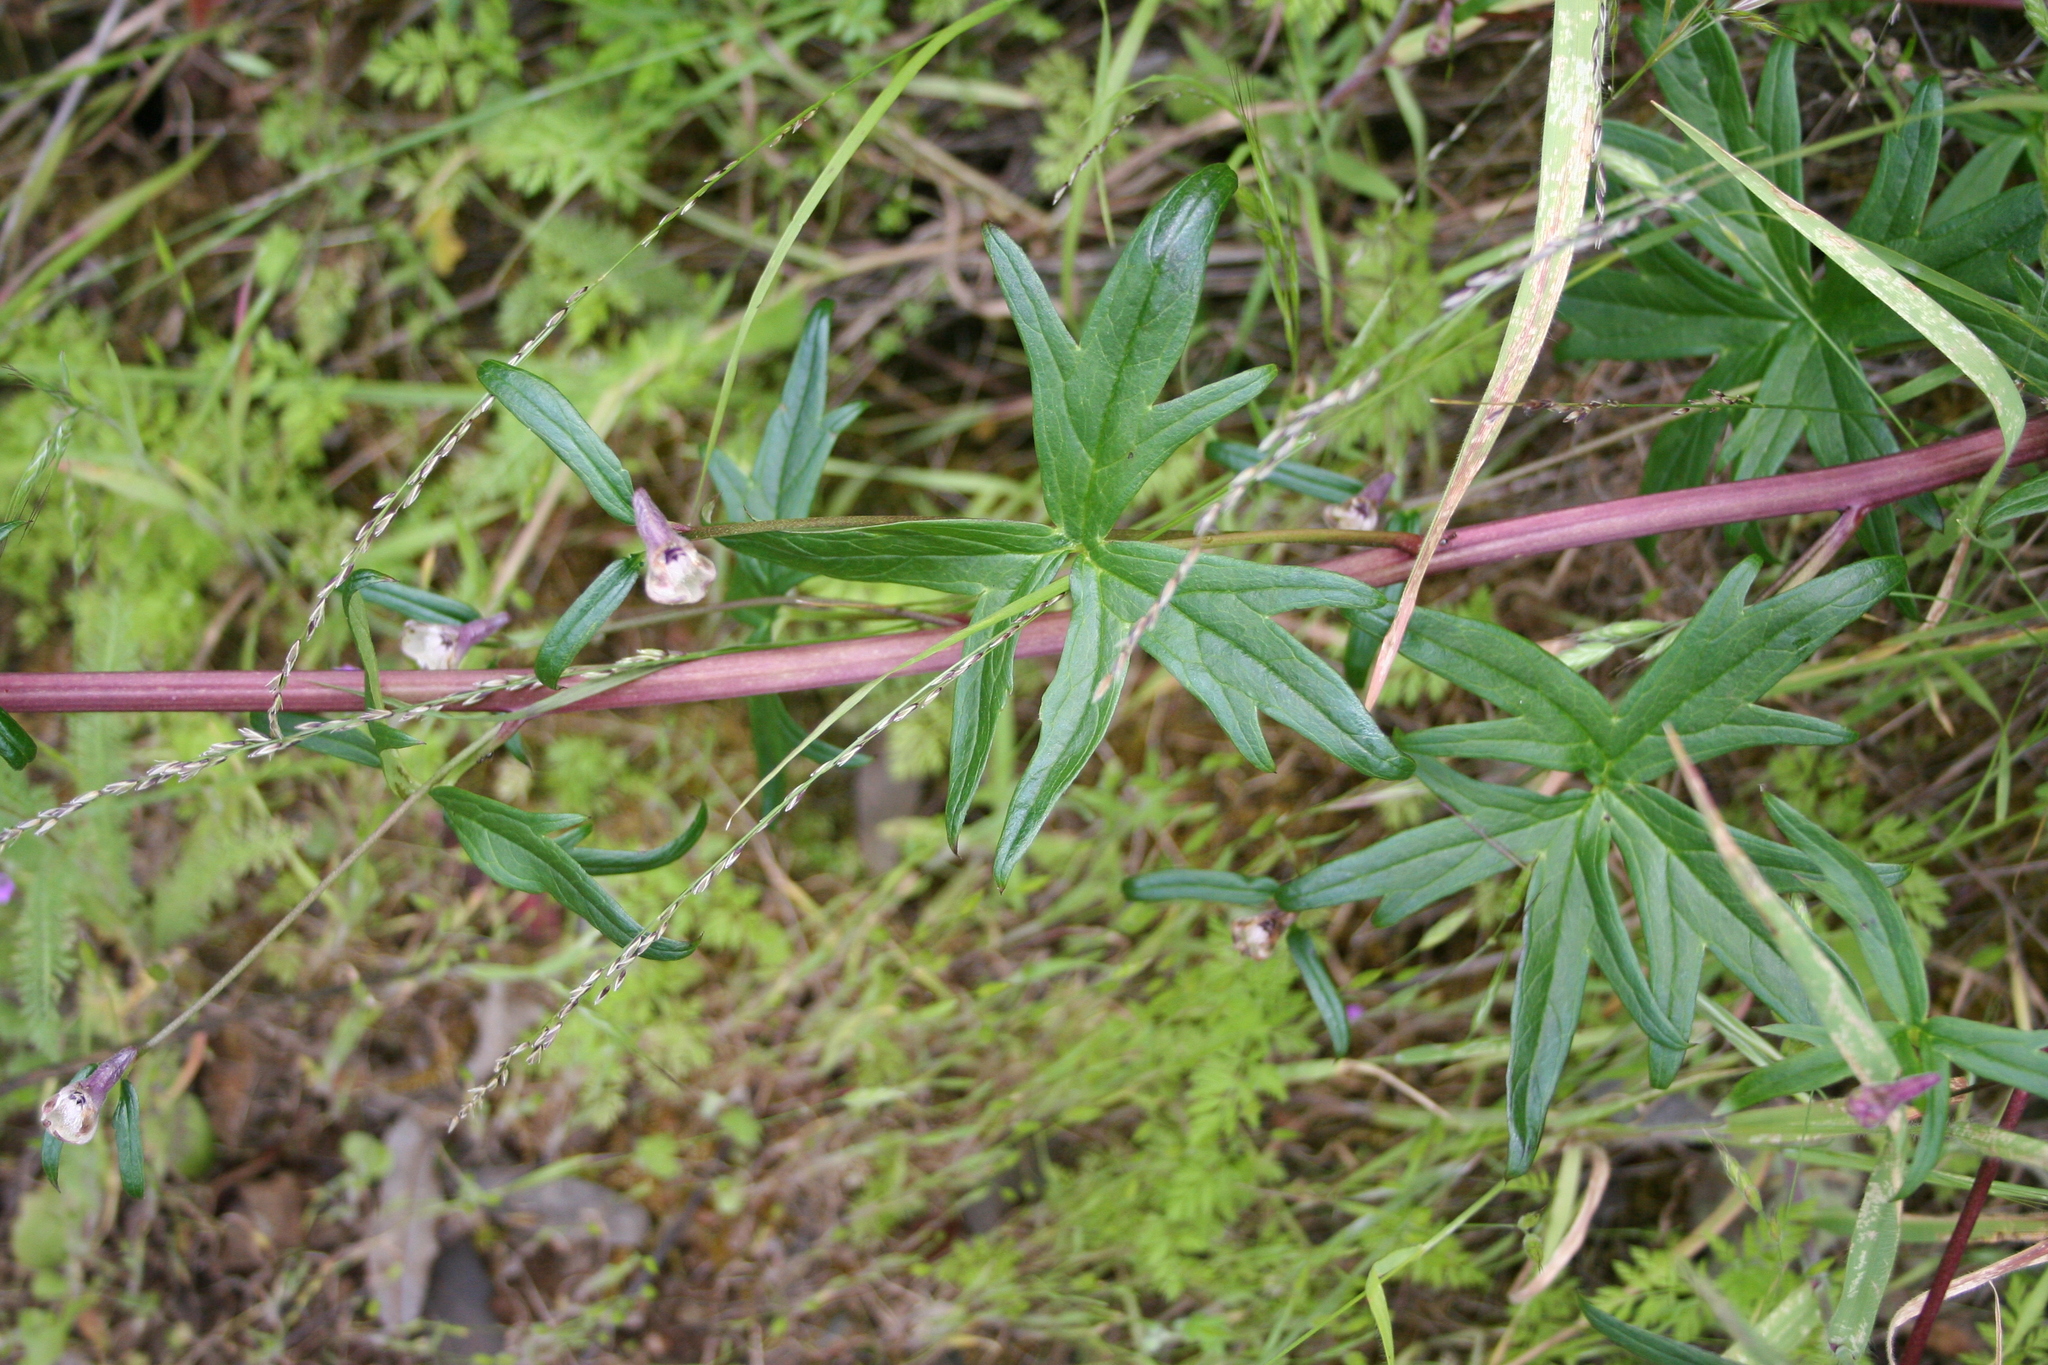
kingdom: Plantae
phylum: Tracheophyta
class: Magnoliopsida
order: Ranunculales
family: Ranunculaceae
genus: Delphinium
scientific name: Delphinium californicum
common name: California larkspur
